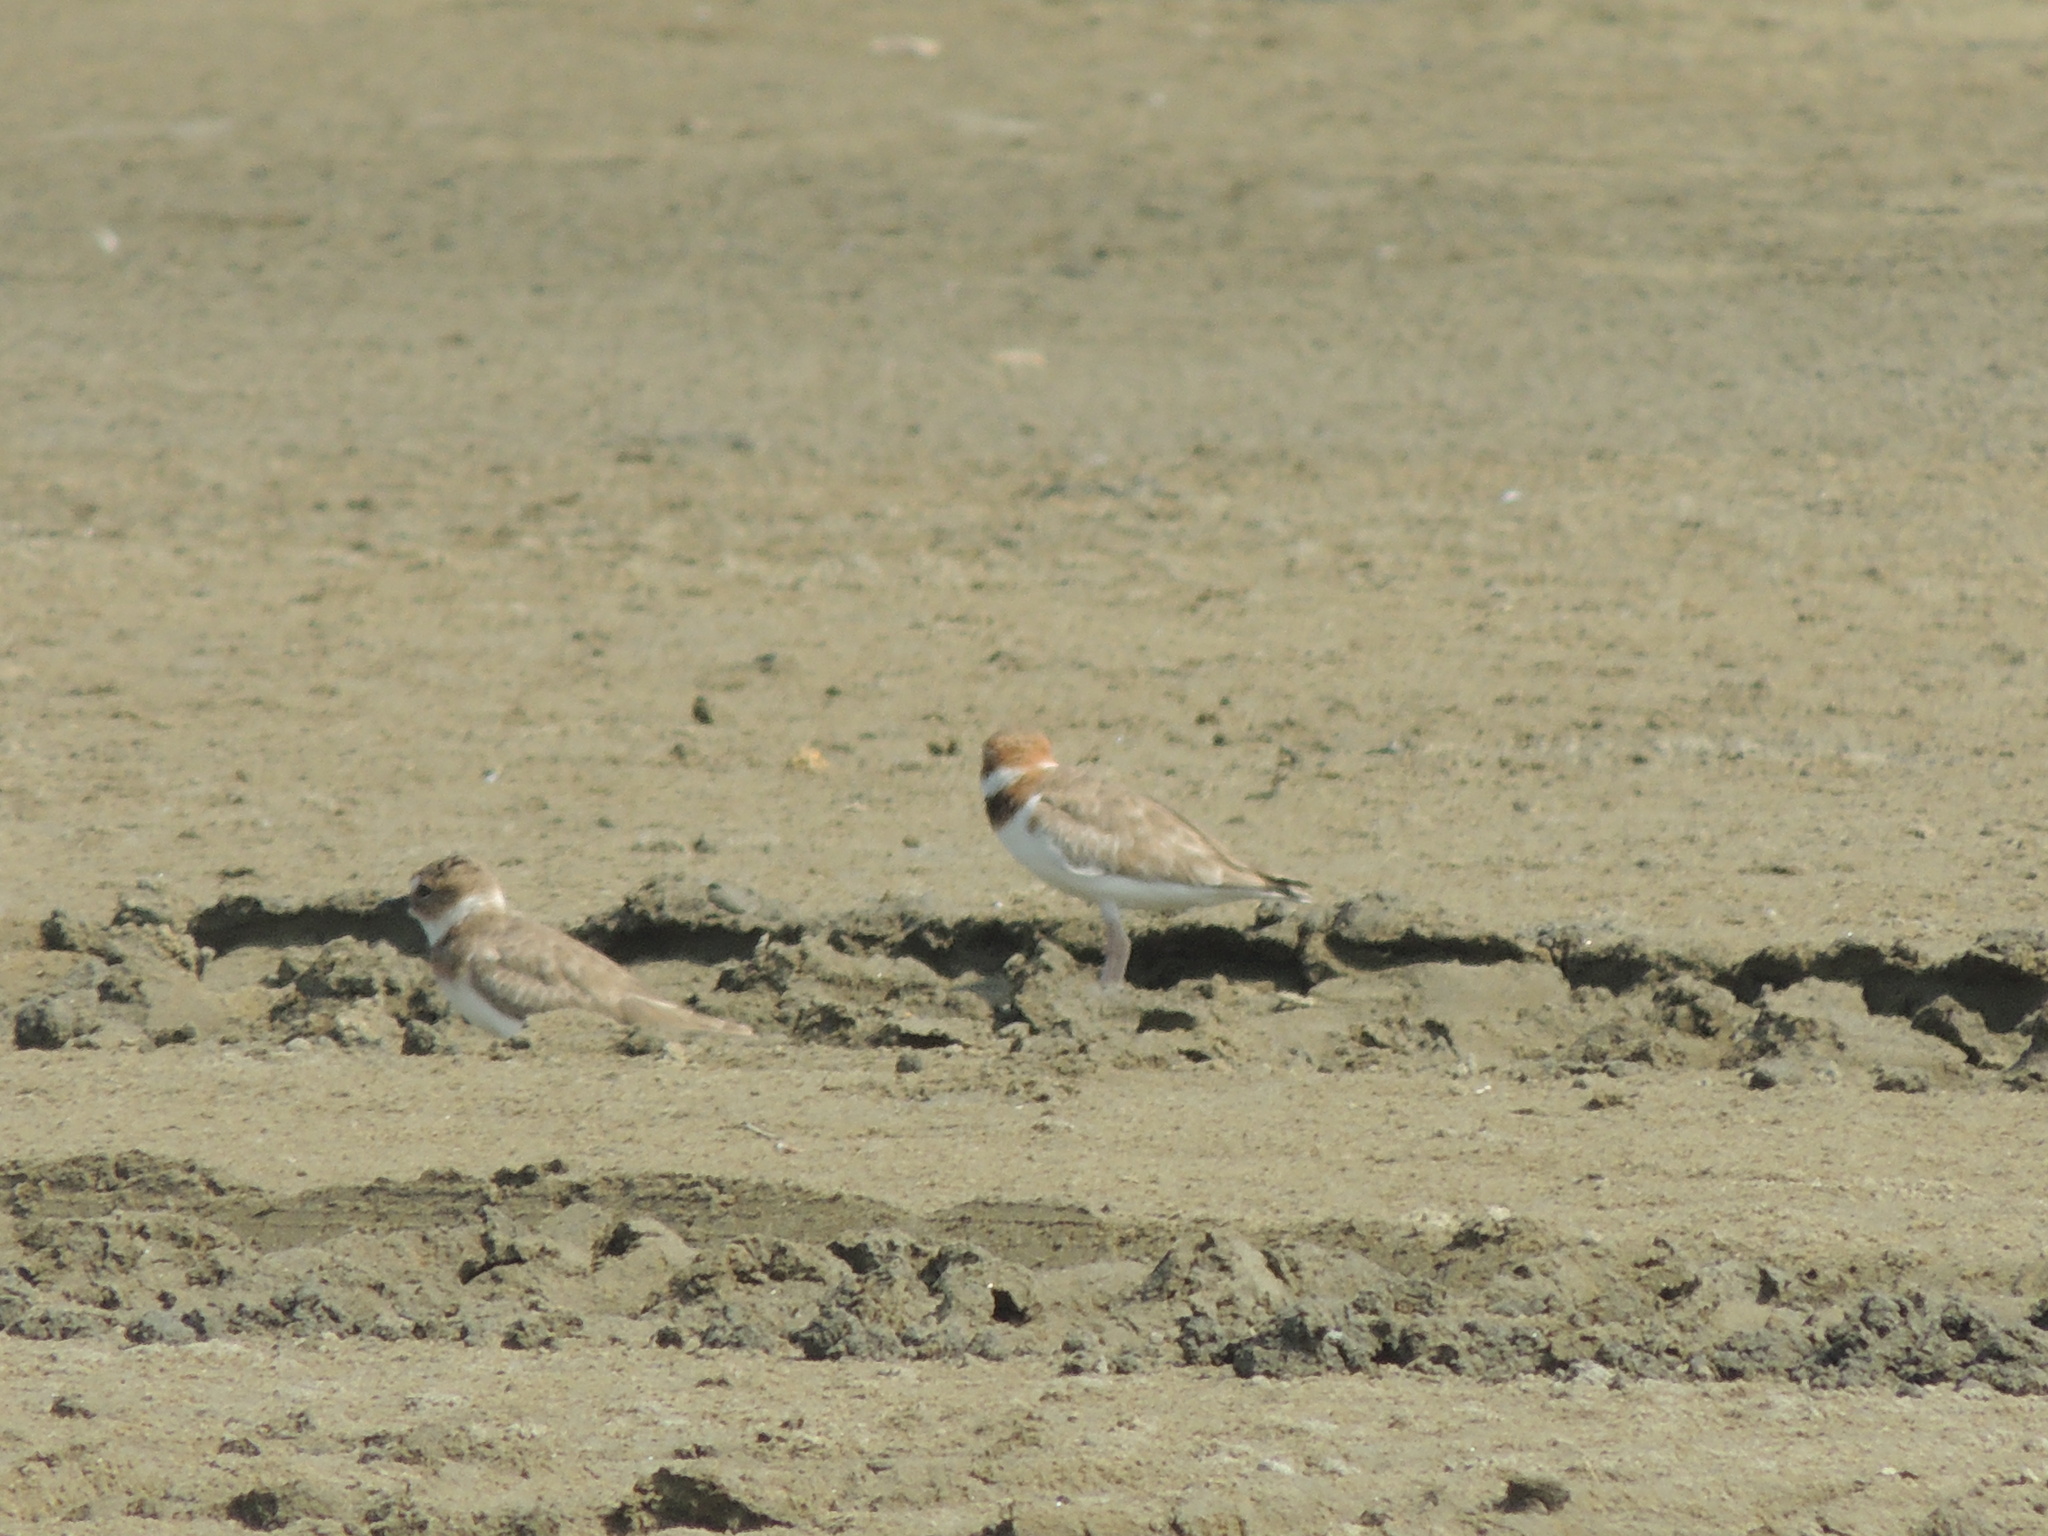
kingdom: Animalia
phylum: Chordata
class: Aves
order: Charadriiformes
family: Charadriidae
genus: Anarhynchus
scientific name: Anarhynchus
